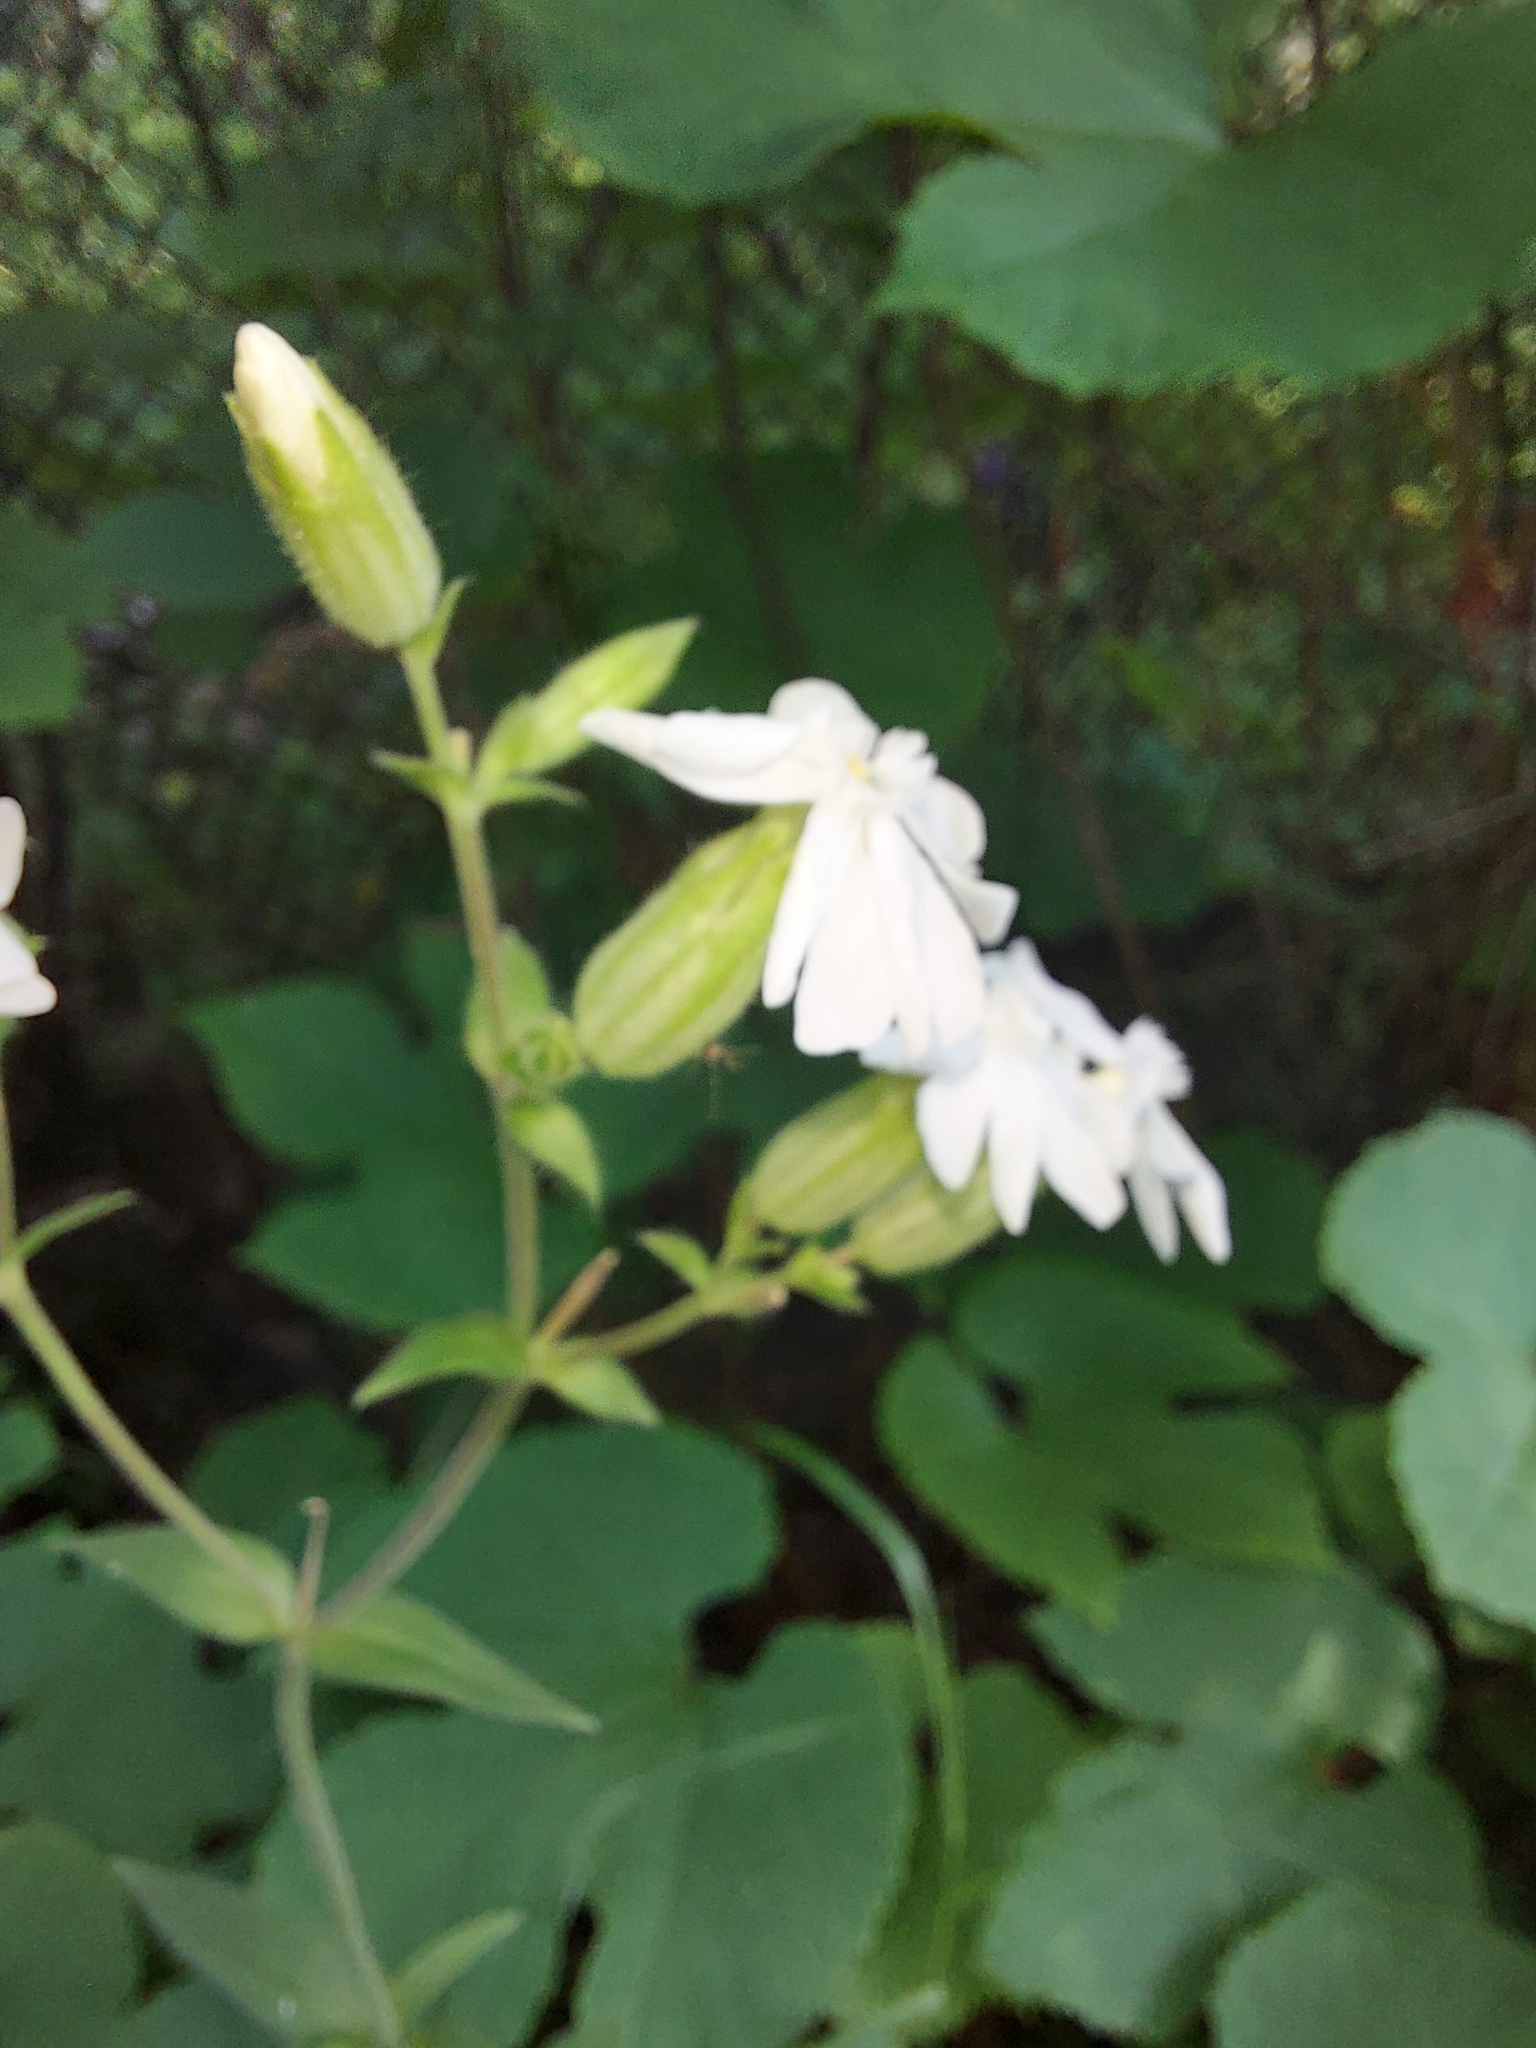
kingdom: Plantae
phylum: Tracheophyta
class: Magnoliopsida
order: Caryophyllales
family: Caryophyllaceae
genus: Silene
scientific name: Silene latifolia
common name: White campion
